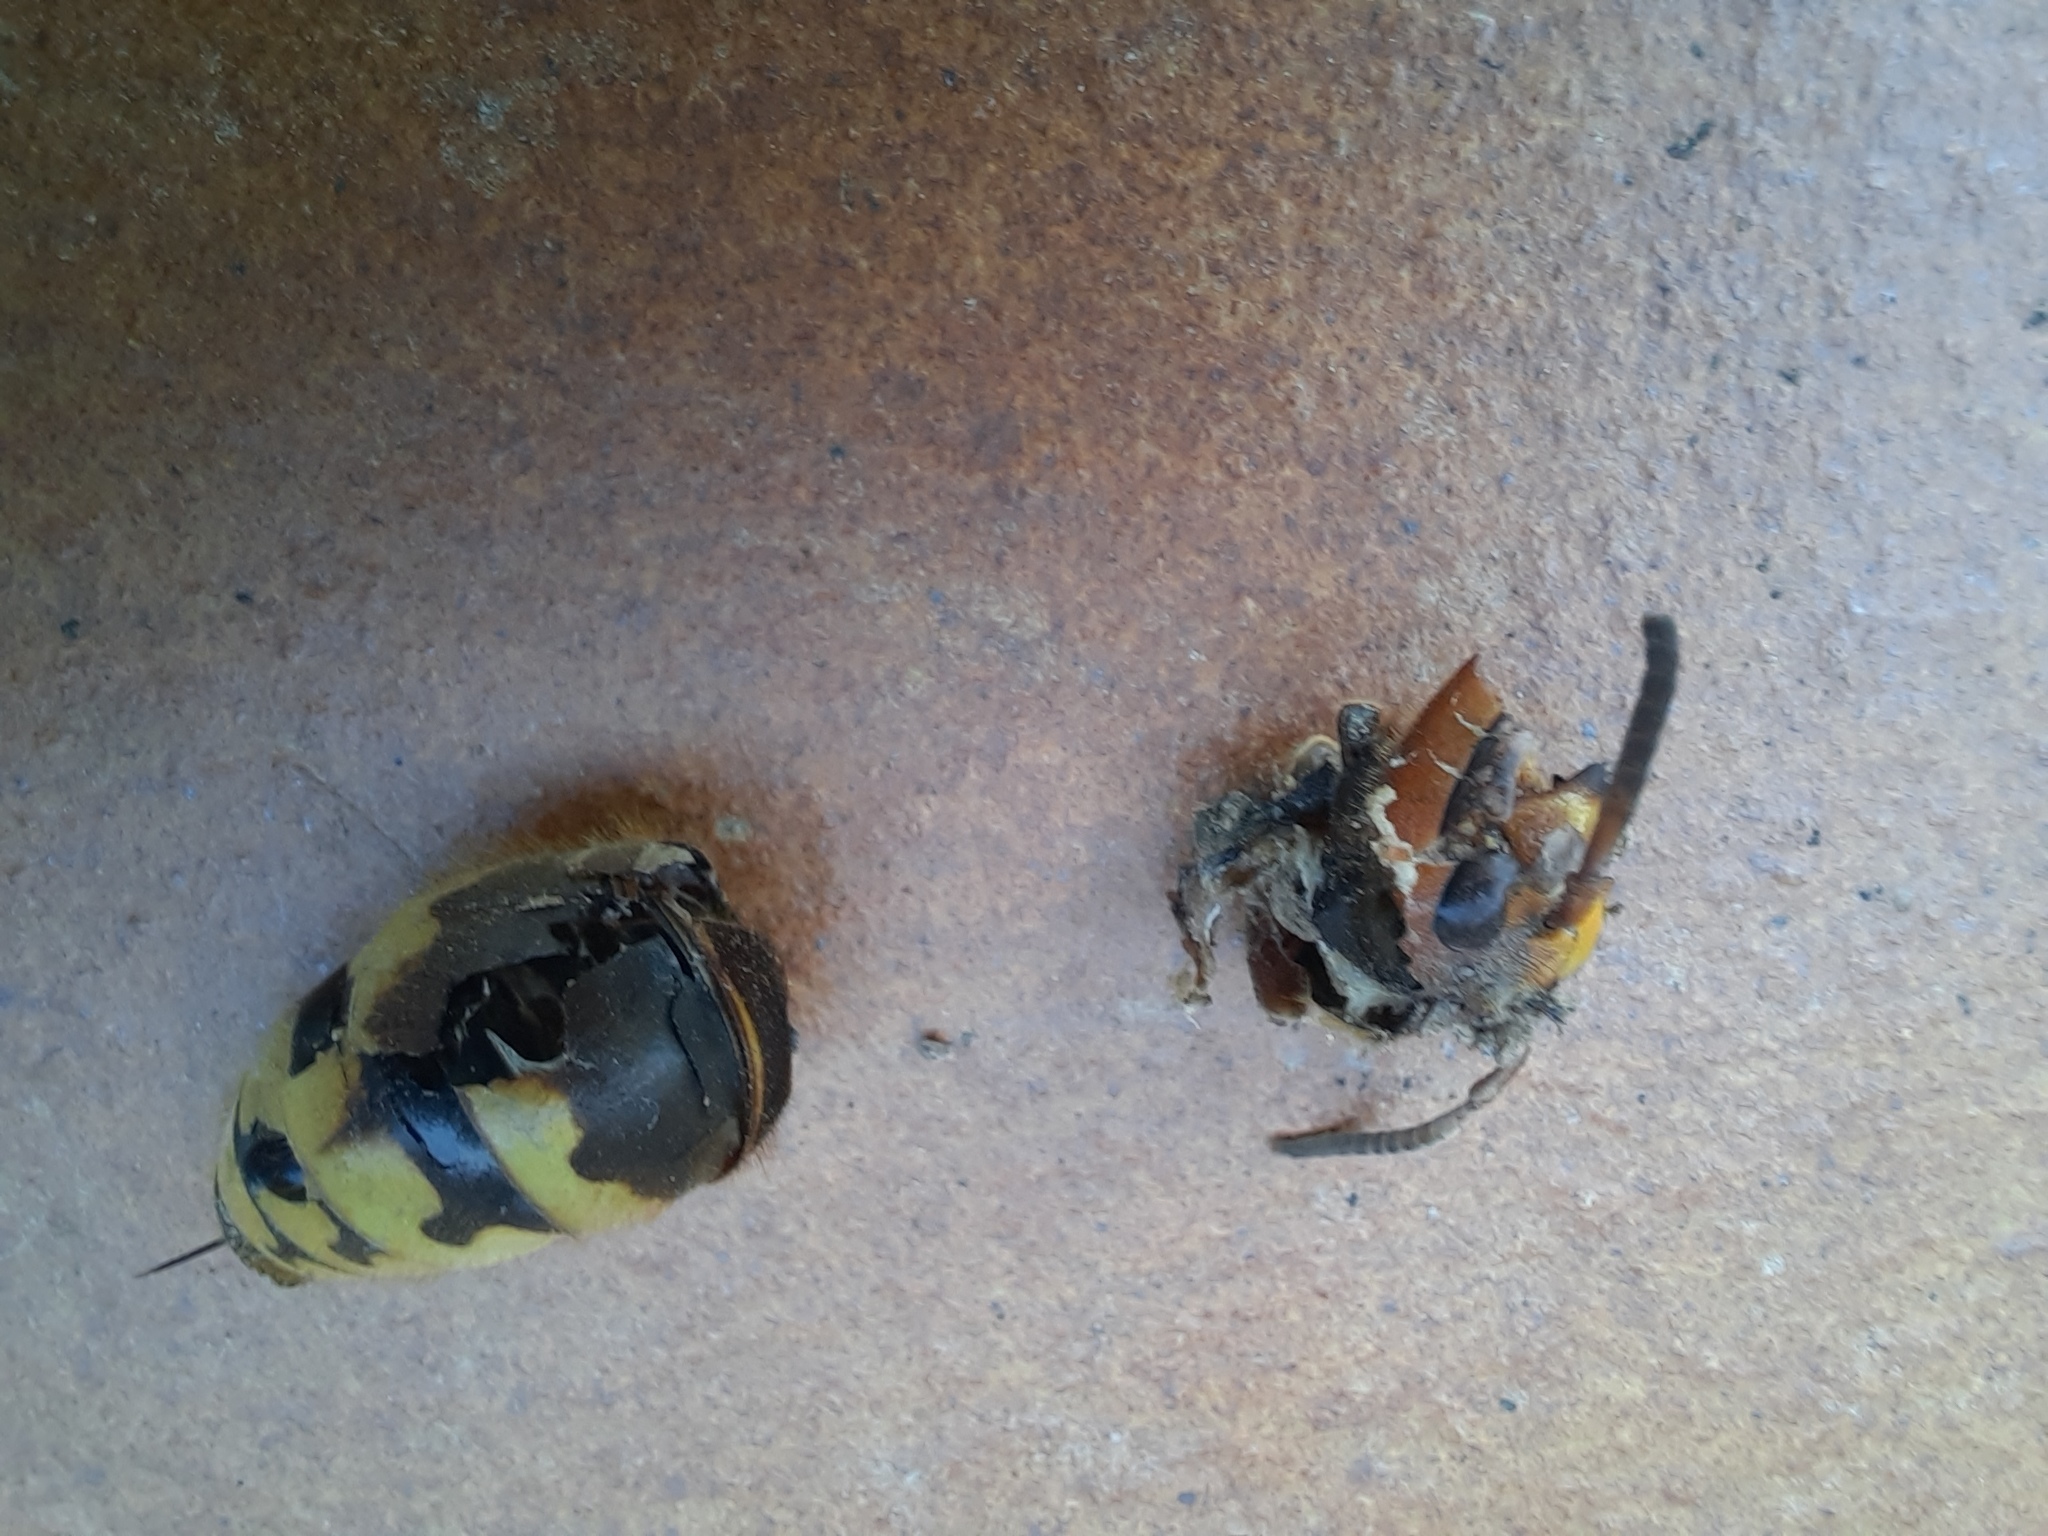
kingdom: Animalia
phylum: Arthropoda
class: Insecta
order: Hymenoptera
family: Vespidae
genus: Vespa
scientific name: Vespa crabro
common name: Hornet
